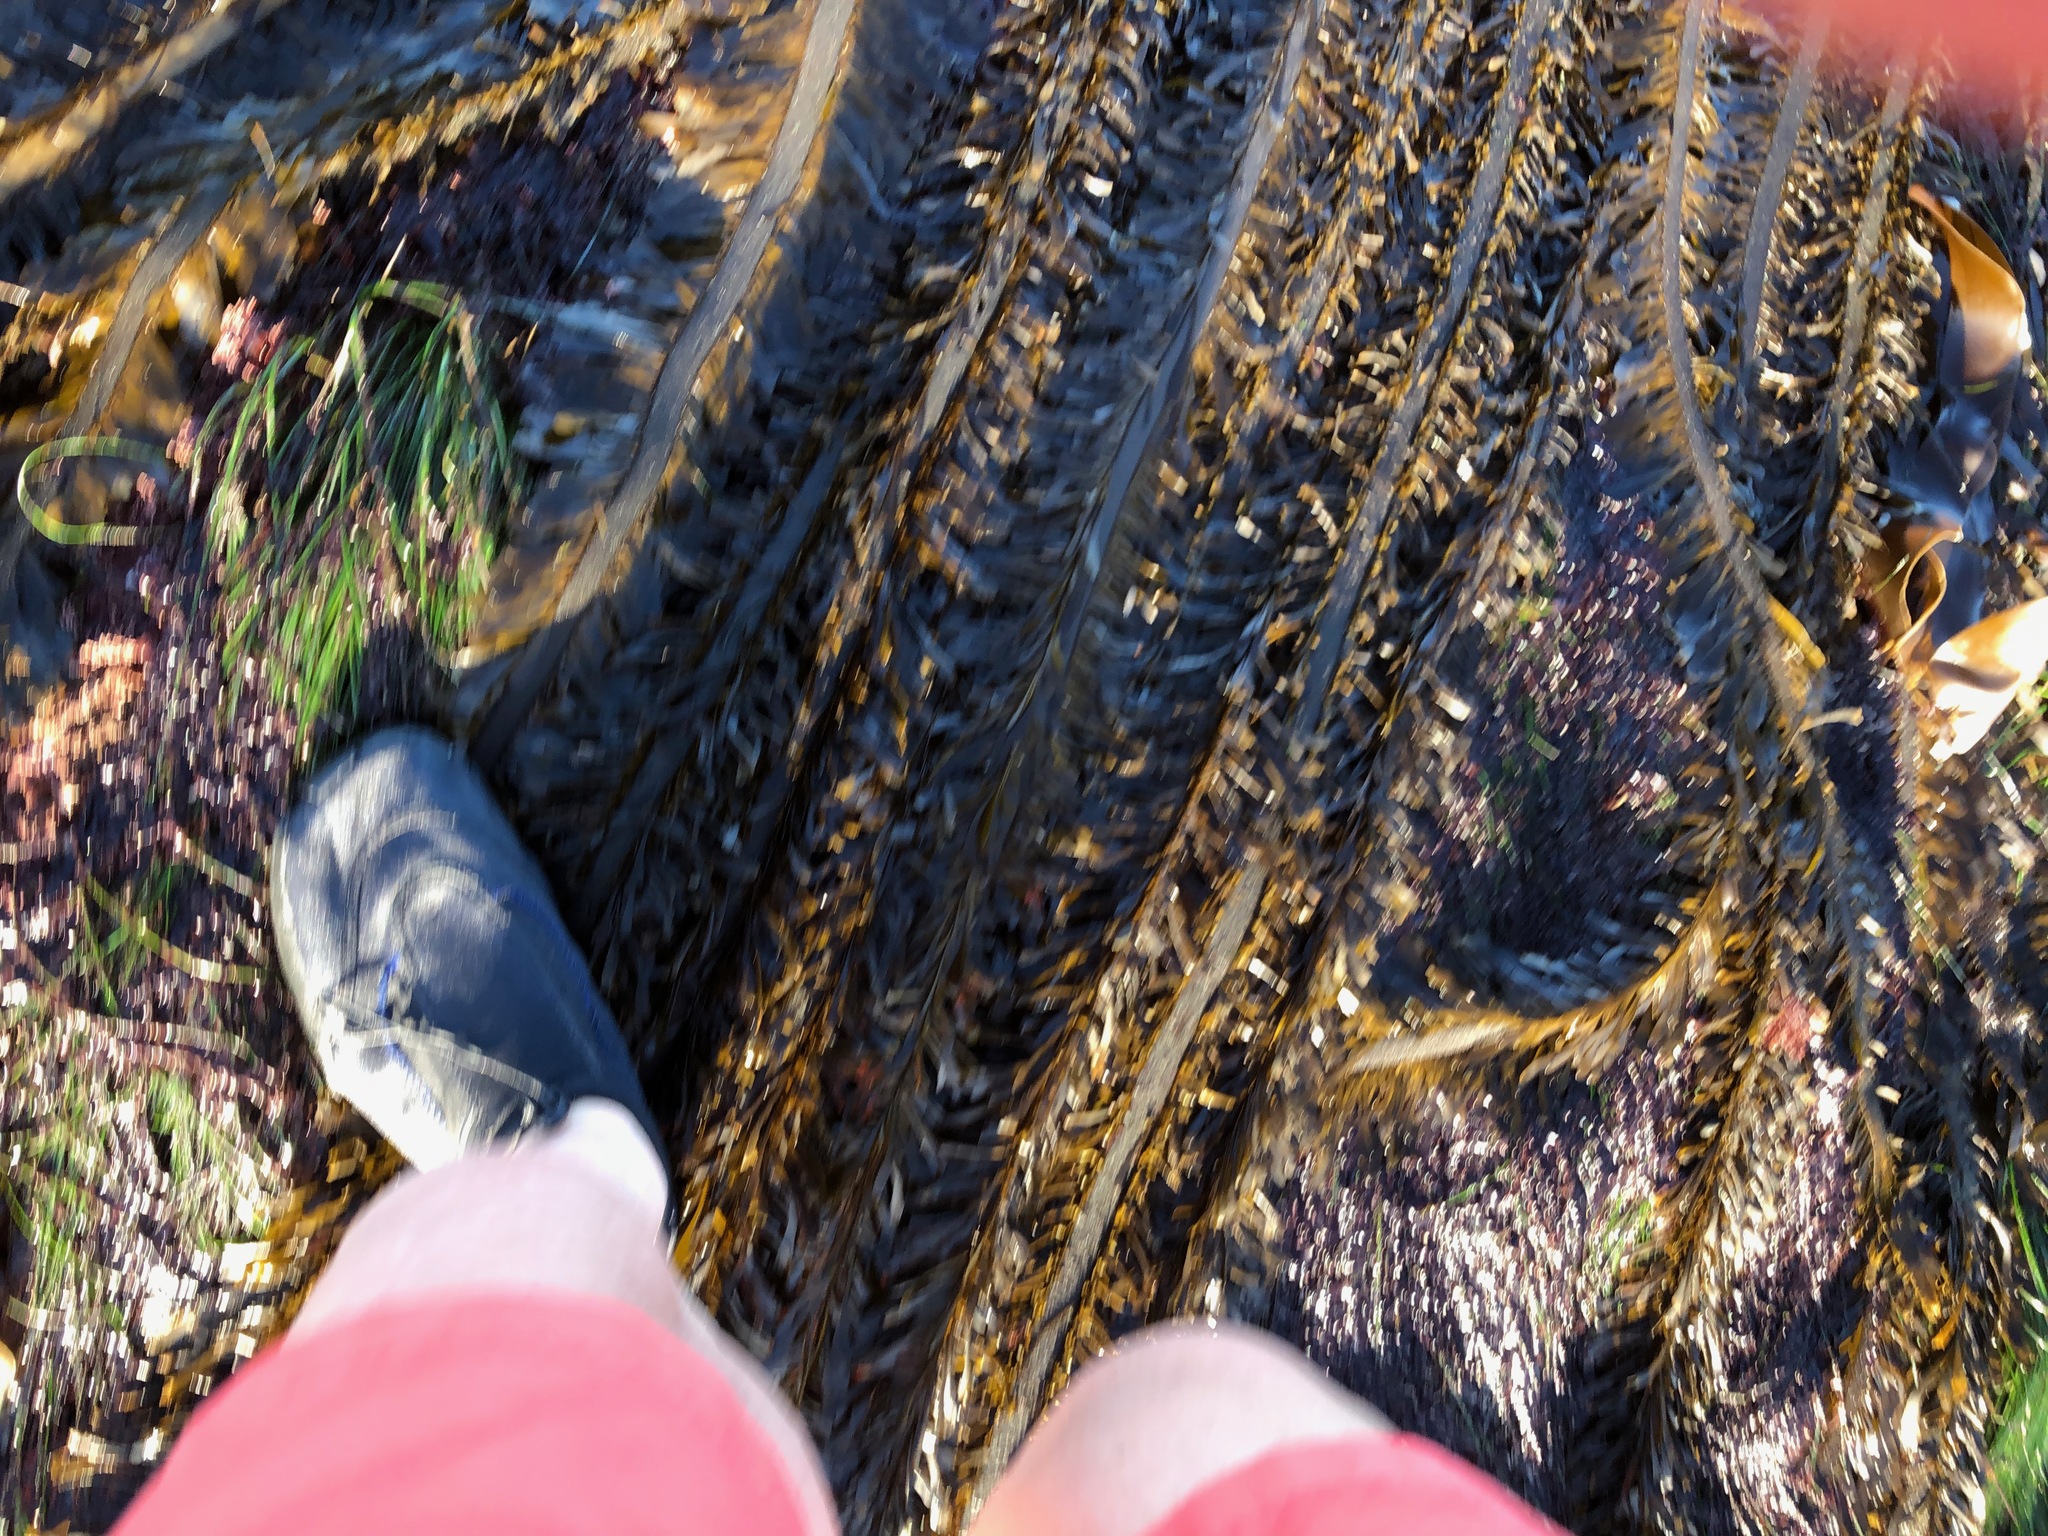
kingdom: Chromista
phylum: Ochrophyta
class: Phaeophyceae
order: Laminariales
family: Lessoniaceae
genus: Egregia
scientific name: Egregia menziesii
